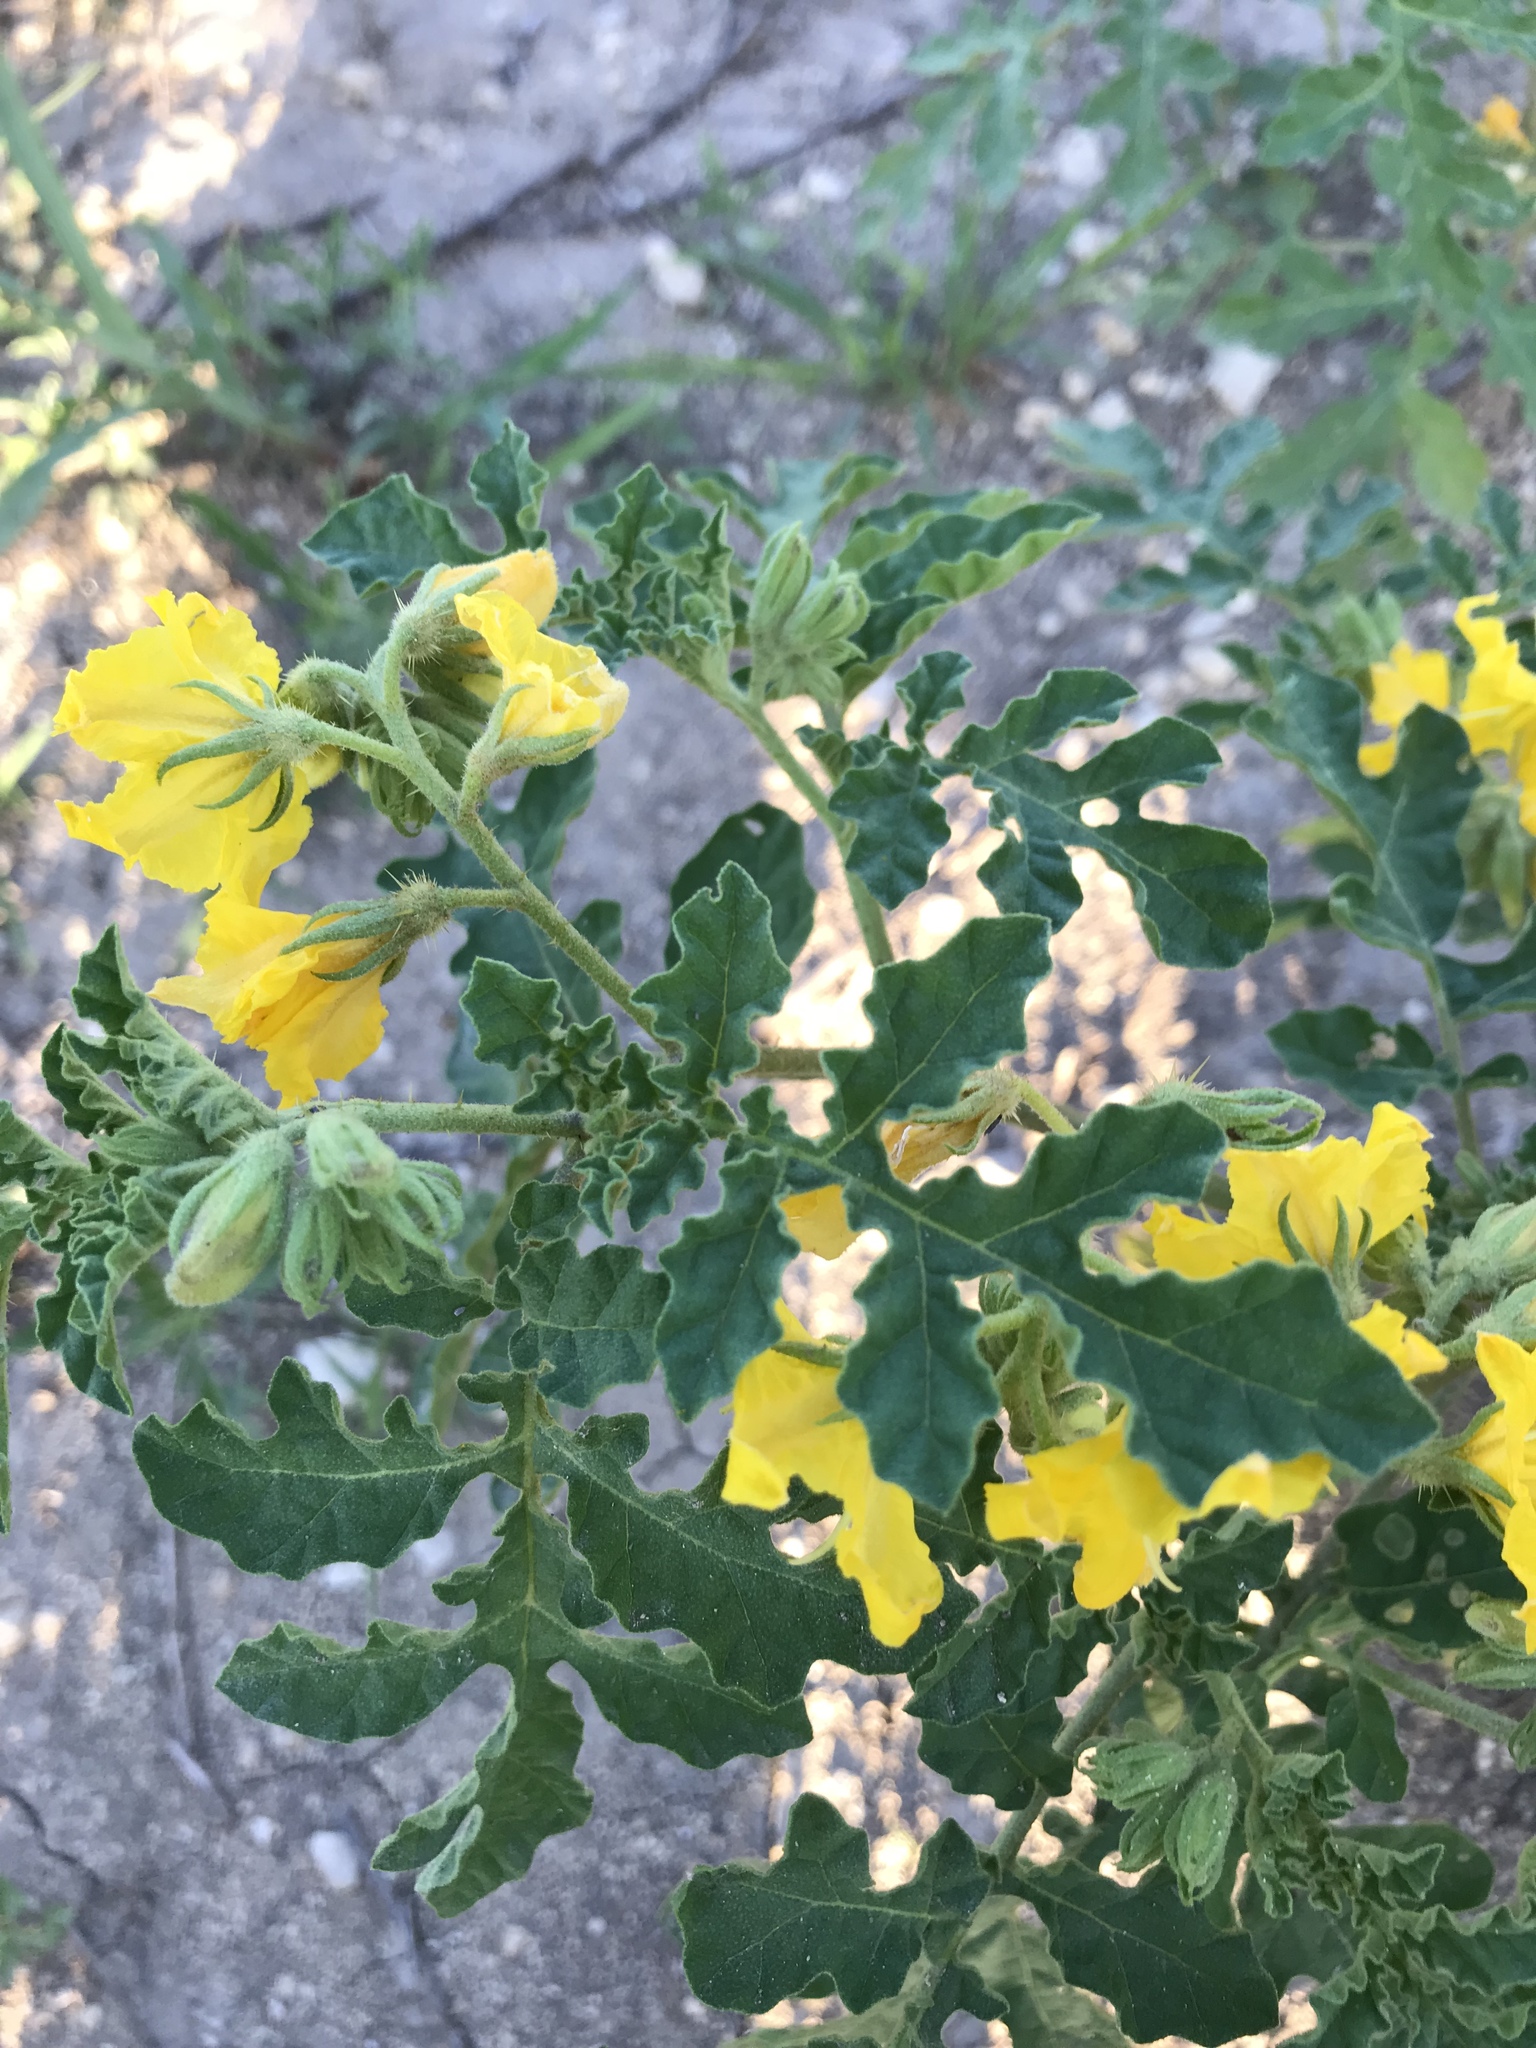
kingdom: Plantae
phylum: Tracheophyta
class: Magnoliopsida
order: Solanales
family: Solanaceae
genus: Solanum
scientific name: Solanum angustifolium
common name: Buffalobur nightshade
